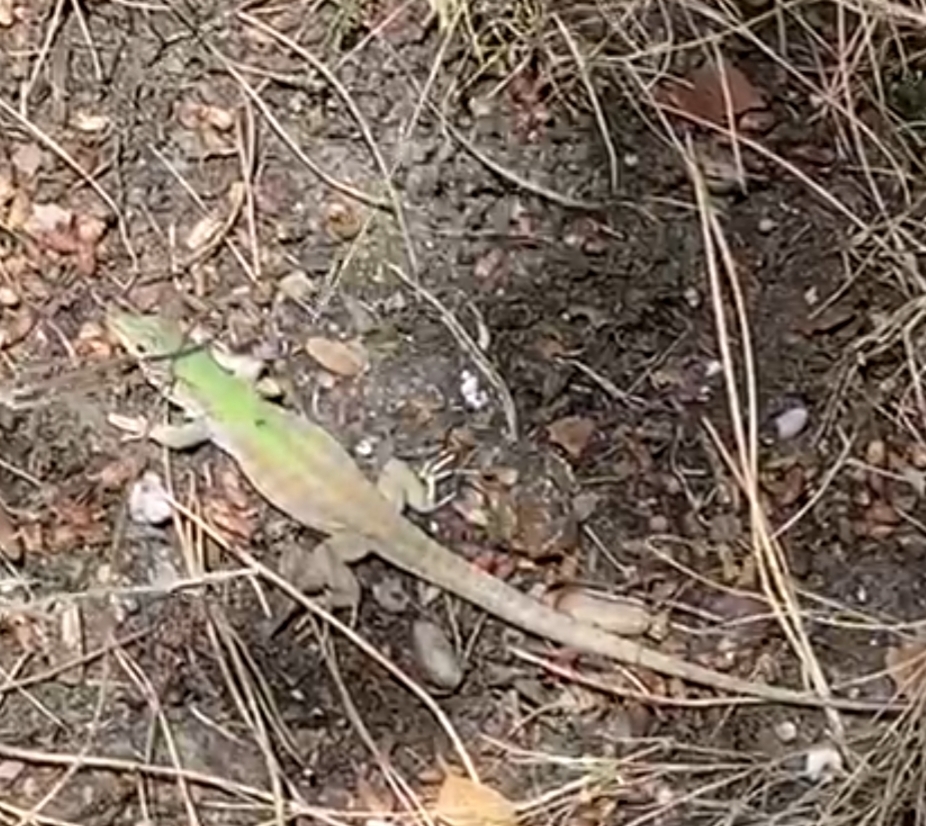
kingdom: Animalia
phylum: Chordata
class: Squamata
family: Lacertidae
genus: Podarcis
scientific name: Podarcis siculus
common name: Italian wall lizard
